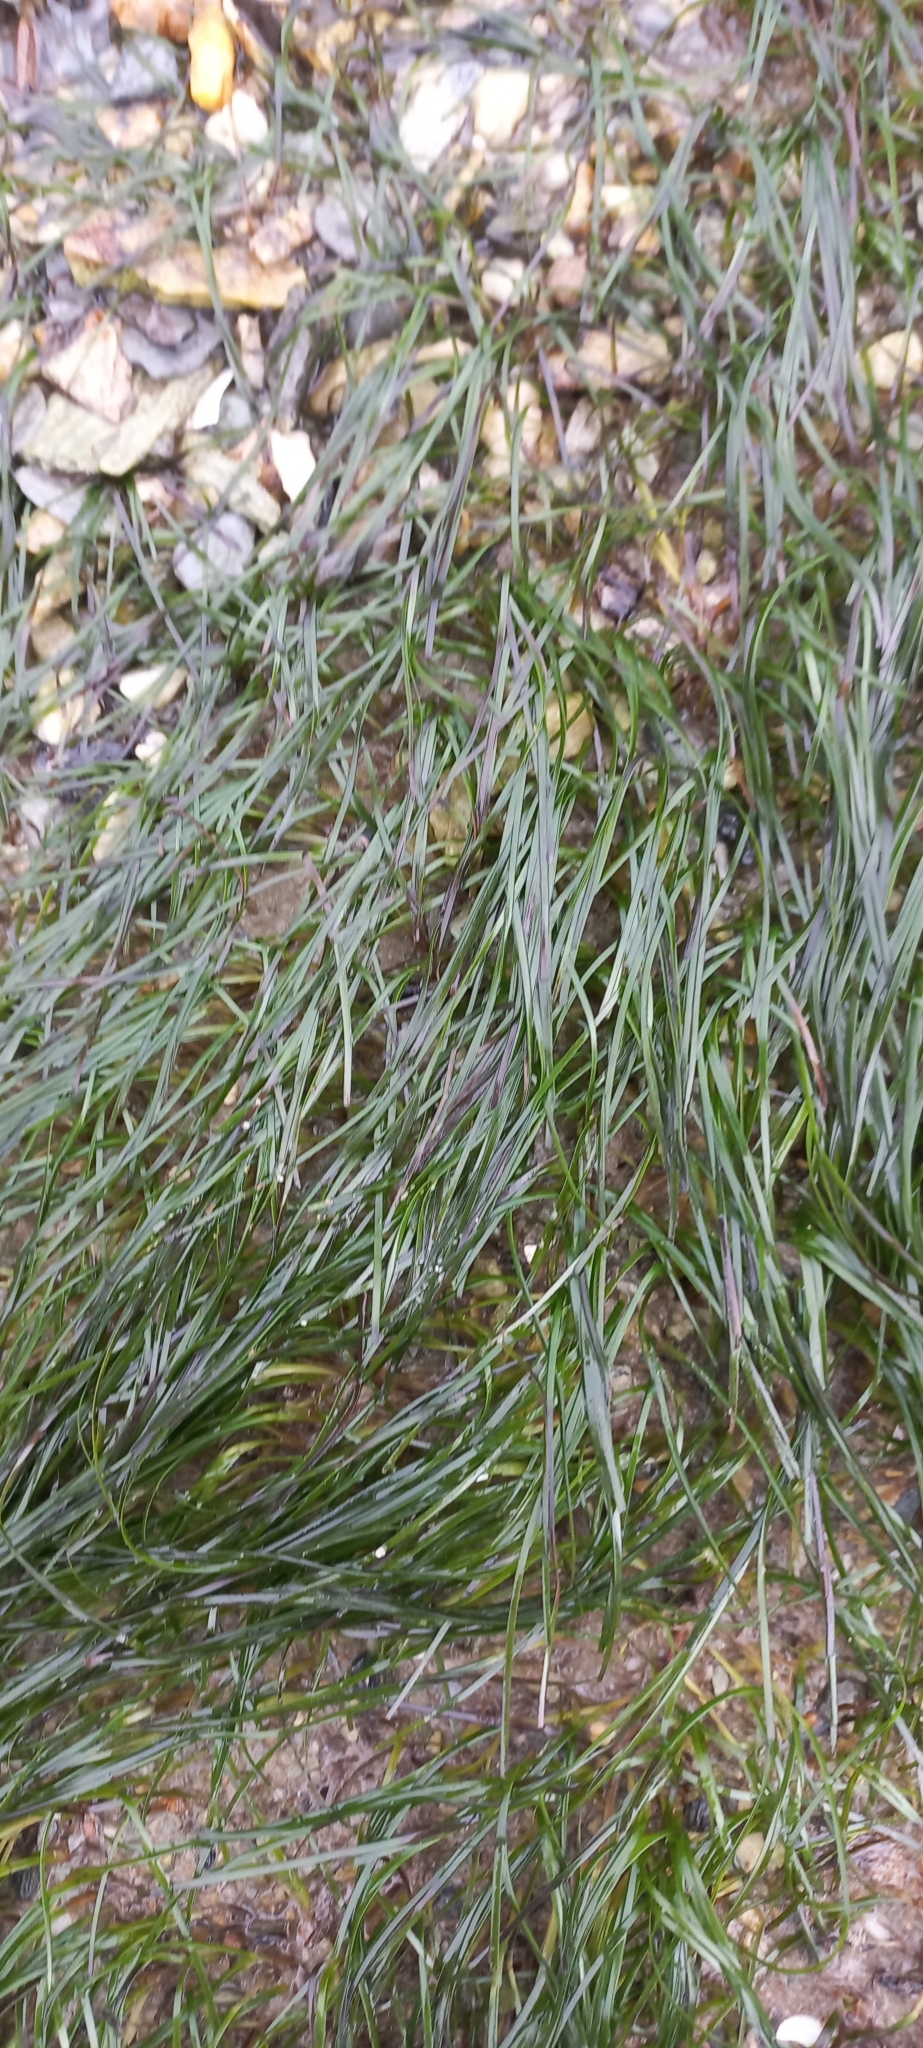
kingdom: Plantae
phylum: Tracheophyta
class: Liliopsida
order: Alismatales
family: Zosteraceae
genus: Zostera
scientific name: Zostera novazelandica
